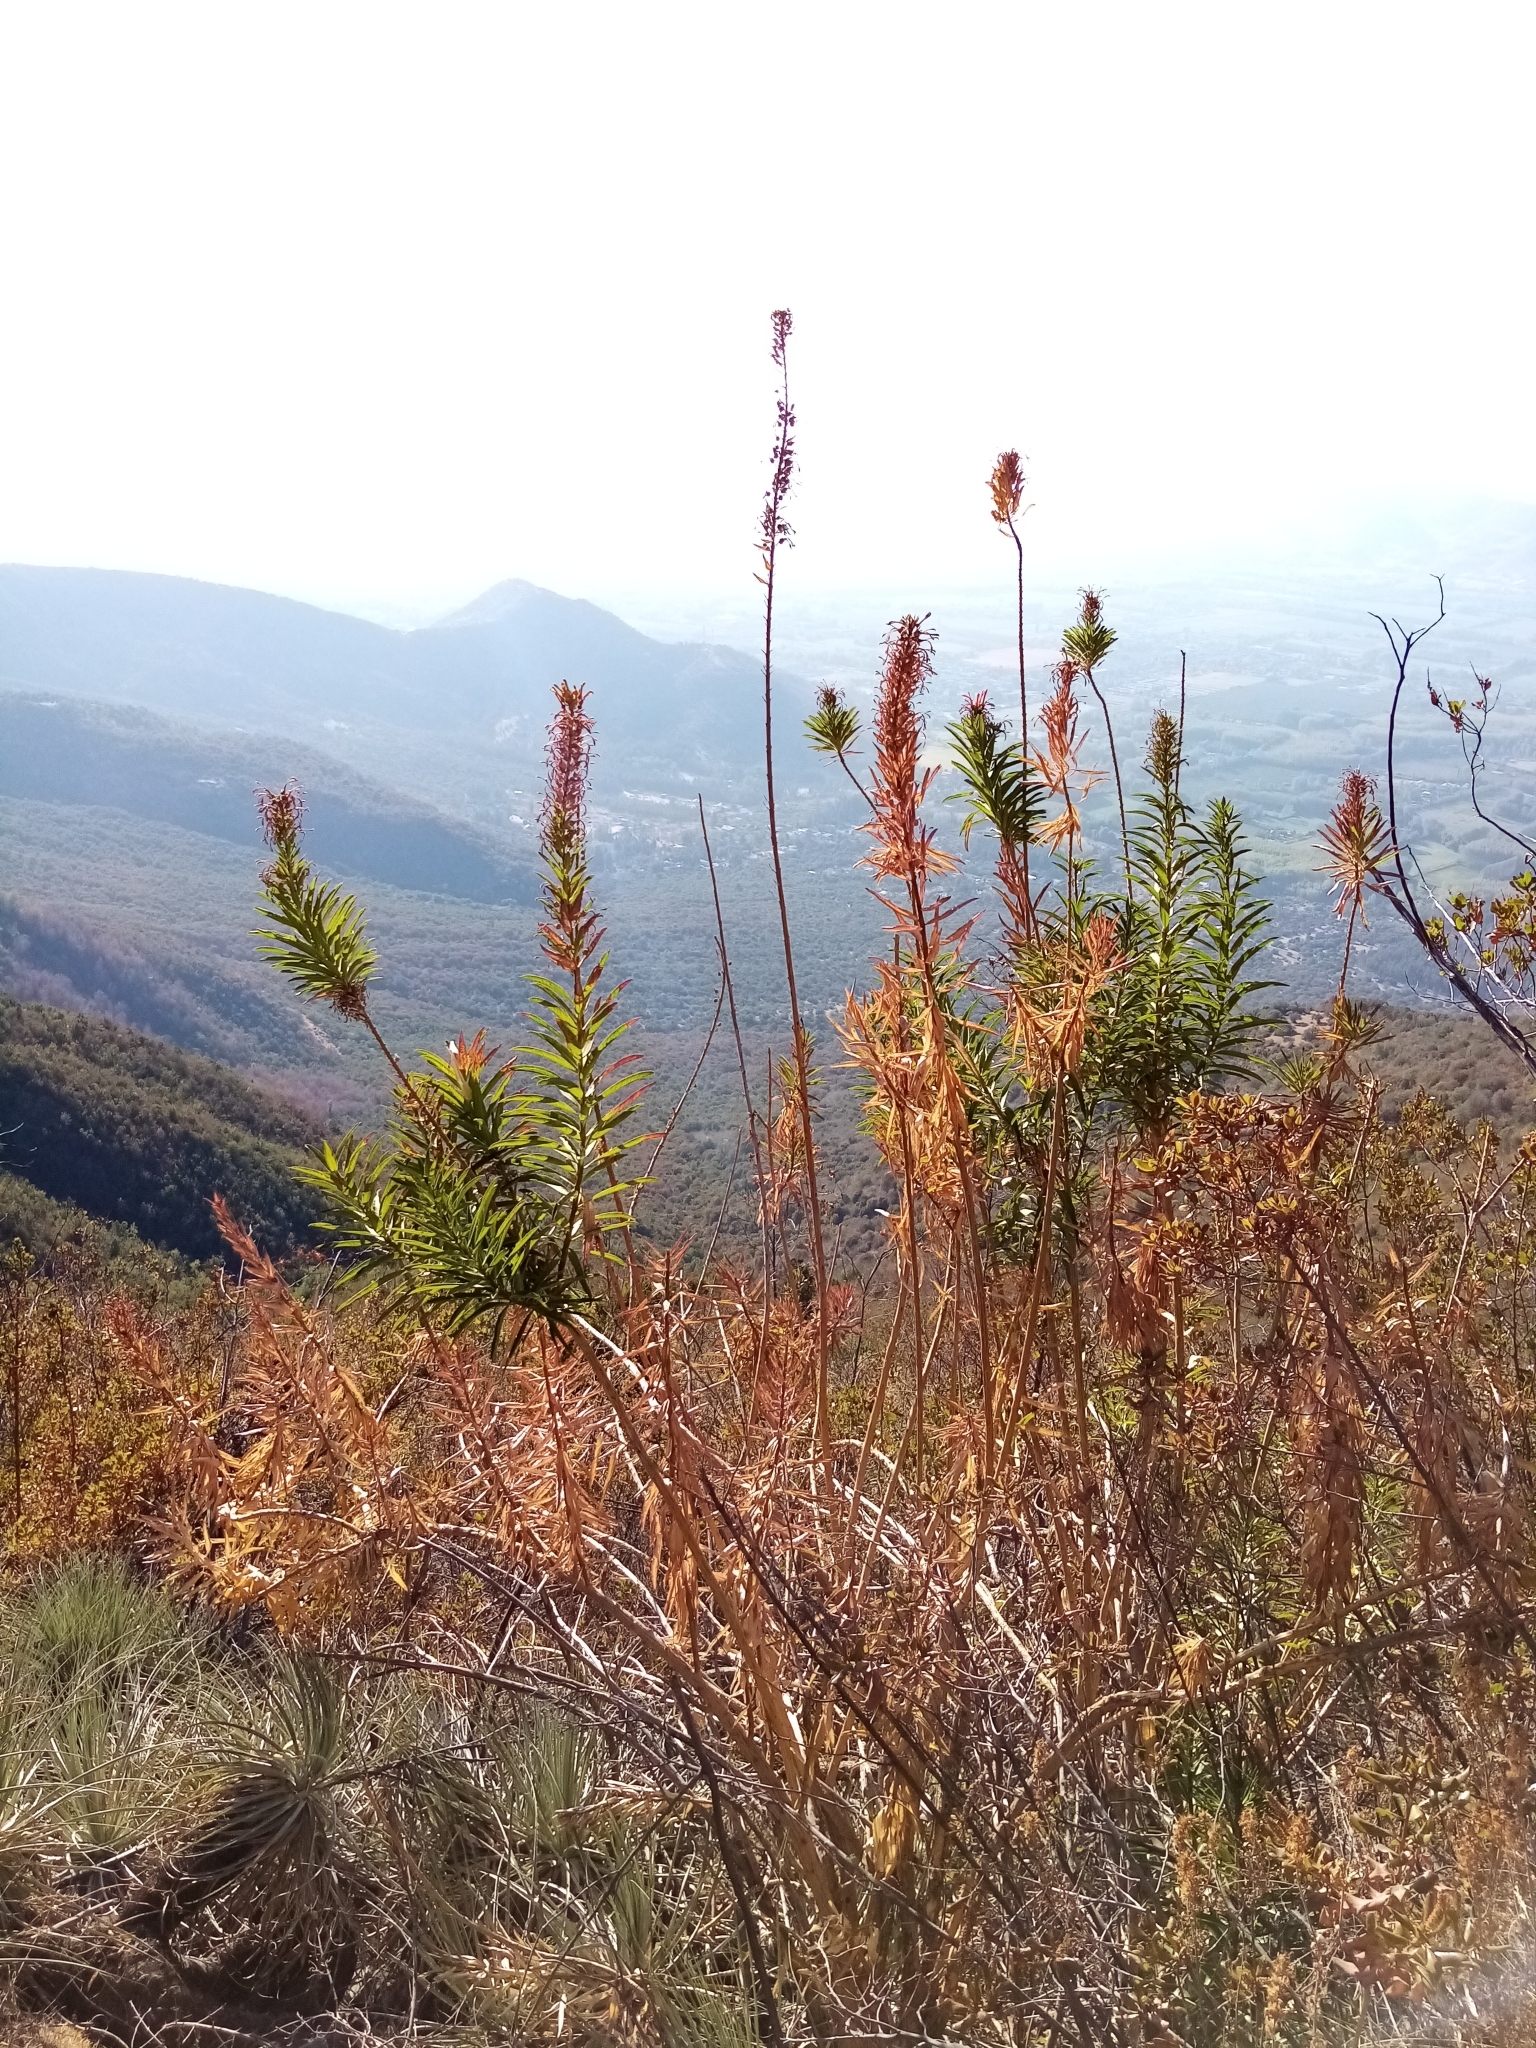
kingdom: Plantae
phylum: Tracheophyta
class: Magnoliopsida
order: Asterales
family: Campanulaceae
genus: Lobelia
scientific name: Lobelia excelsa
